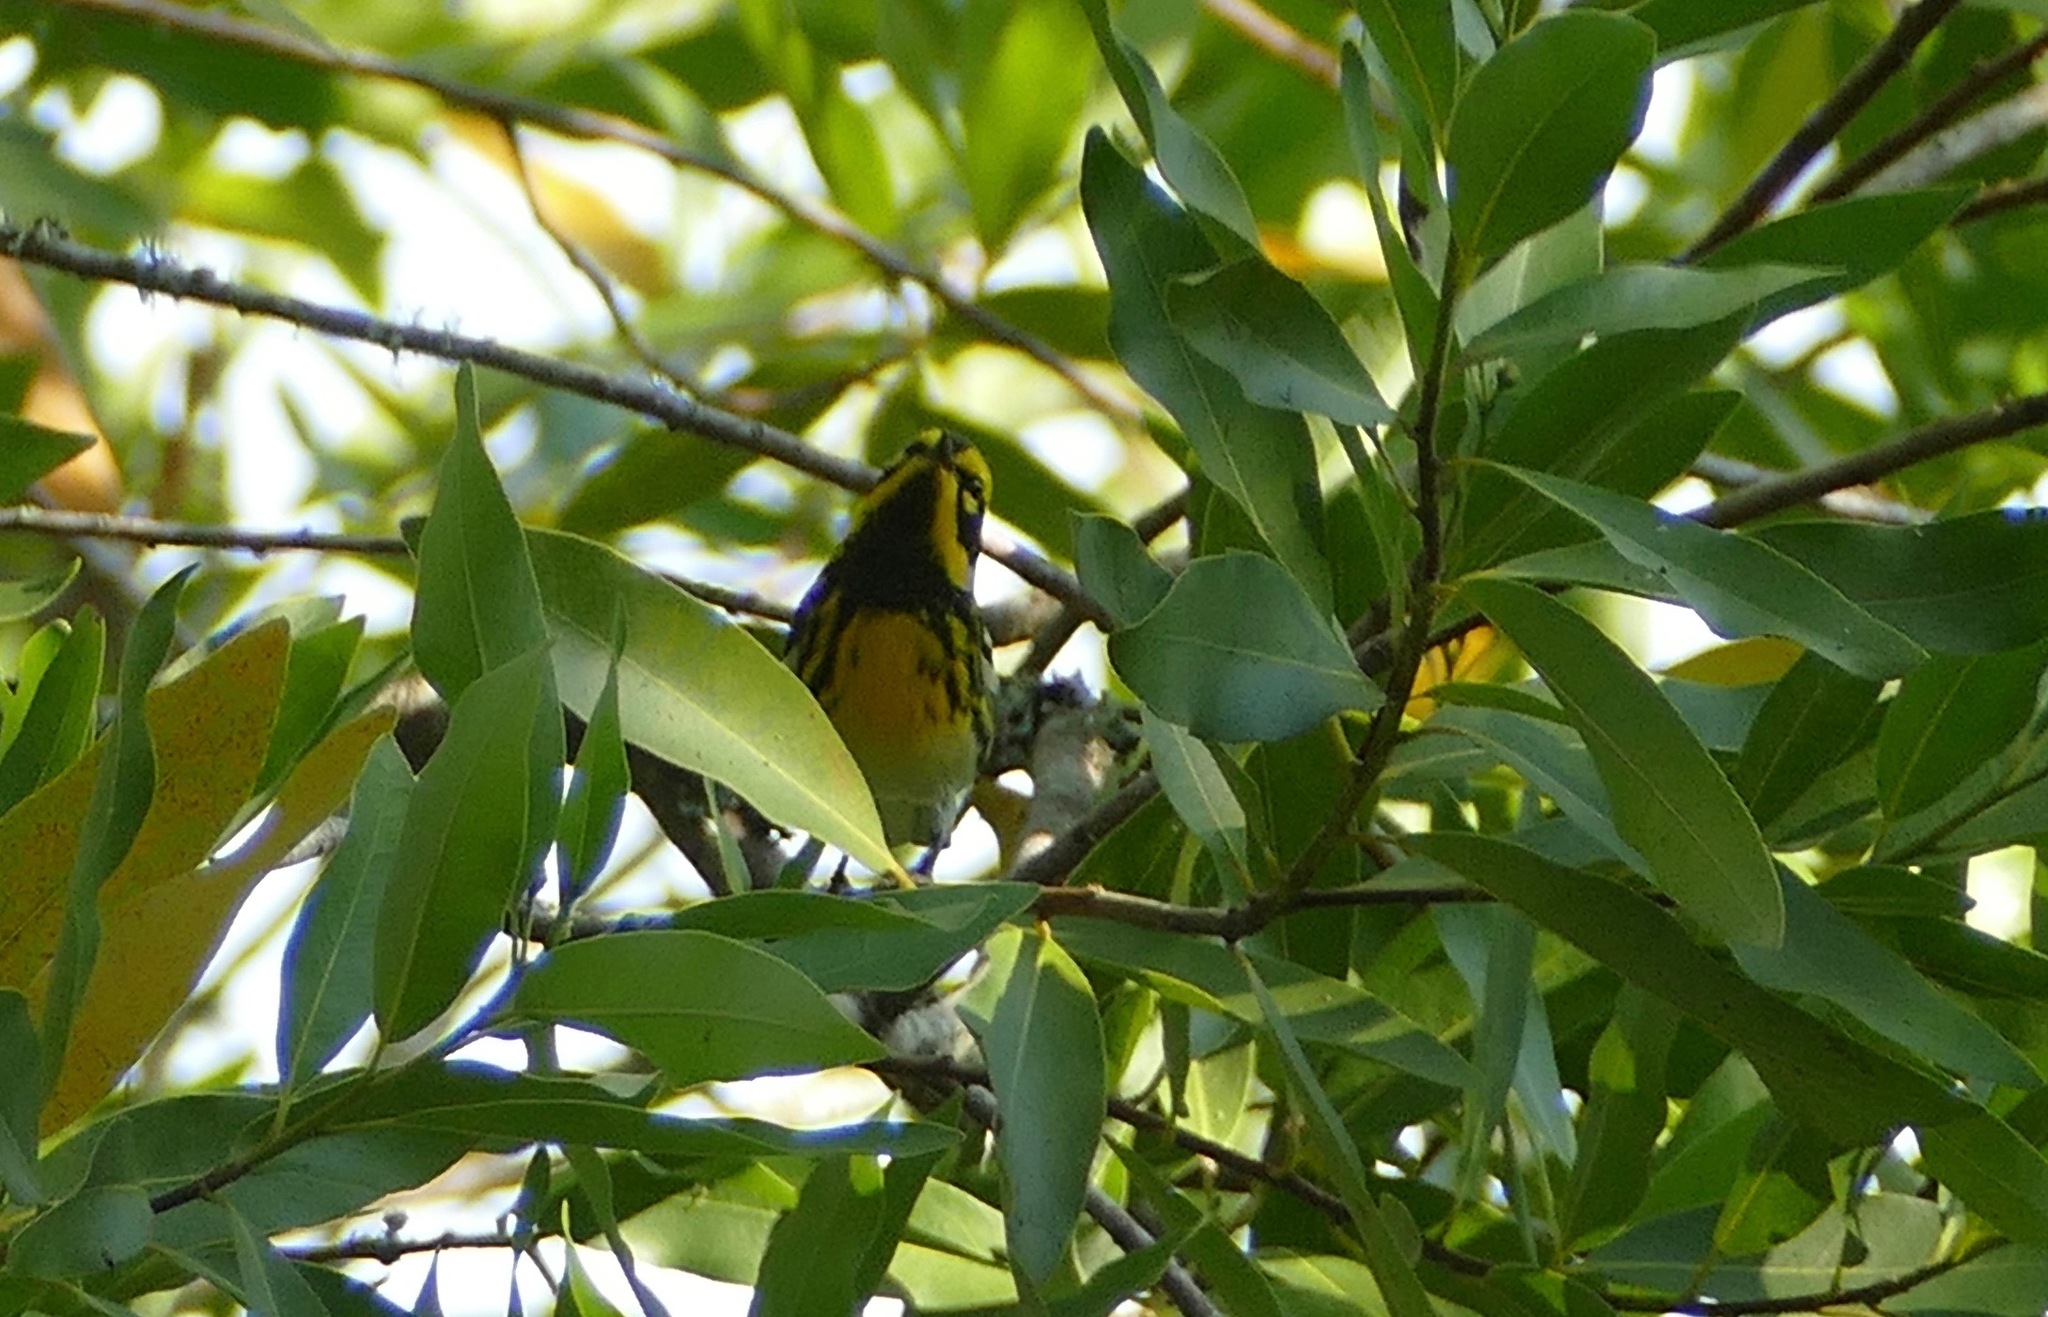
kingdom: Animalia
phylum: Chordata
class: Aves
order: Passeriformes
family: Parulidae
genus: Setophaga
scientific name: Setophaga townsendi
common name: Townsend's warbler
